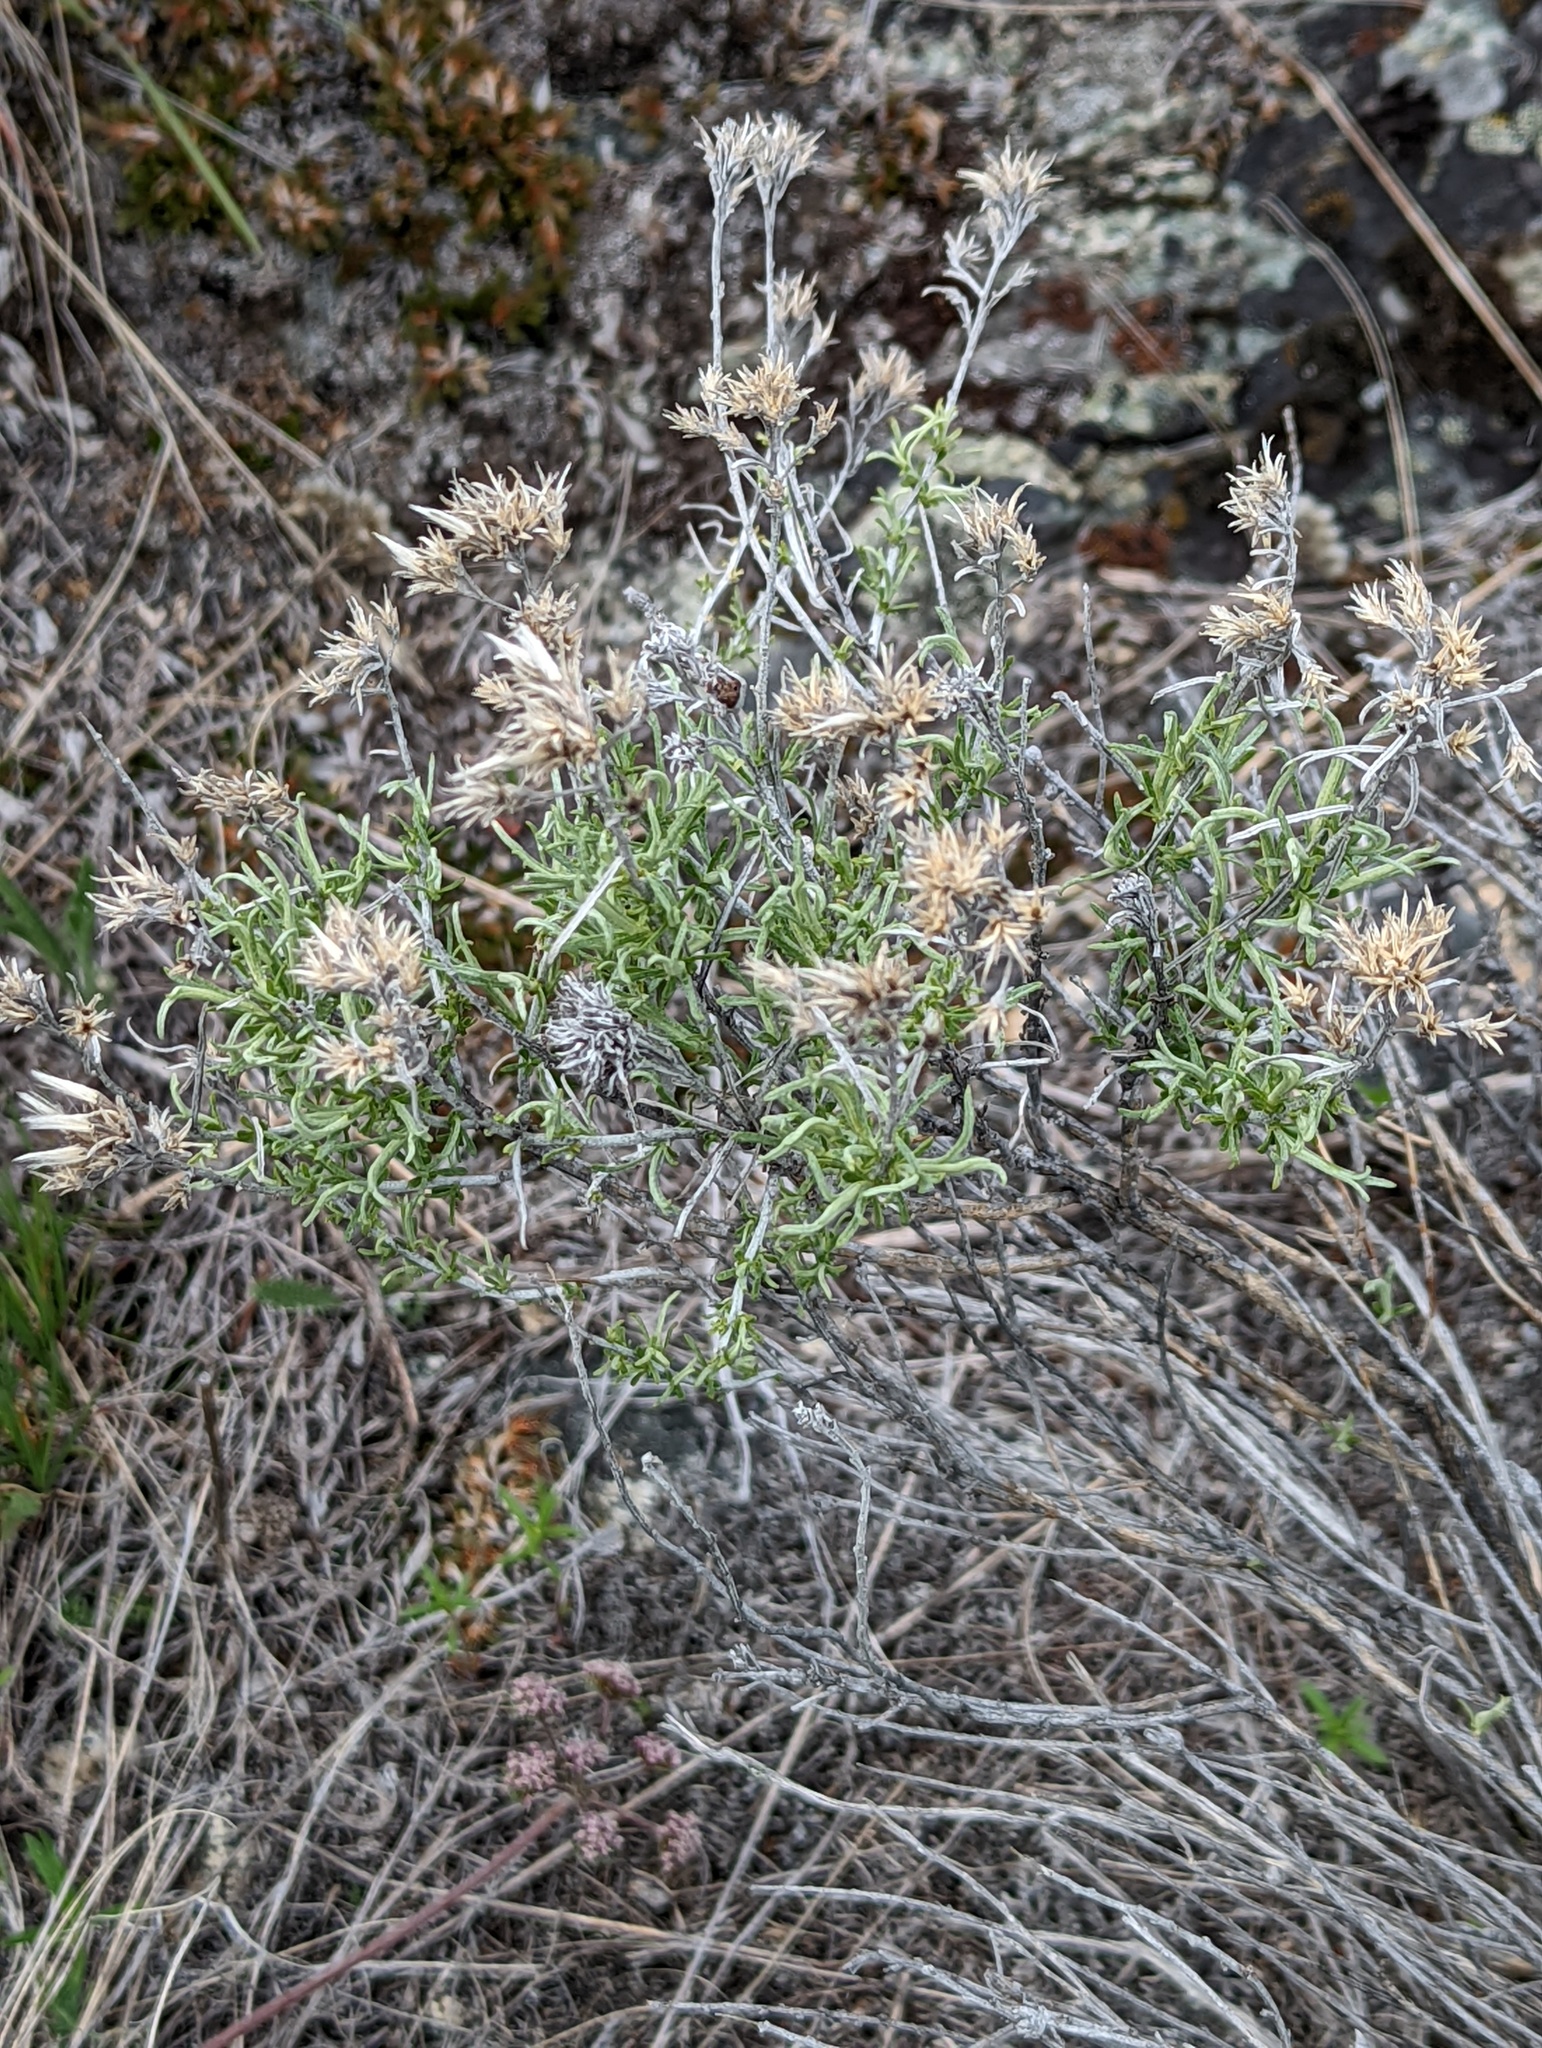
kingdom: Plantae
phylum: Tracheophyta
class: Magnoliopsida
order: Asterales
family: Asteraceae
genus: Ericameria
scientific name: Ericameria nauseosa
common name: Rubber rabbitbrush
